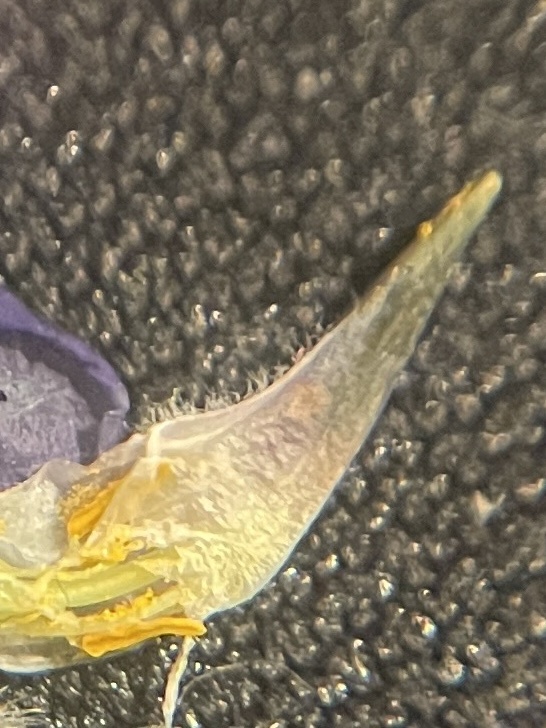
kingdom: Plantae
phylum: Tracheophyta
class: Magnoliopsida
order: Fabales
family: Fabaceae
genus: Lupinus
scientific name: Lupinus affinis
